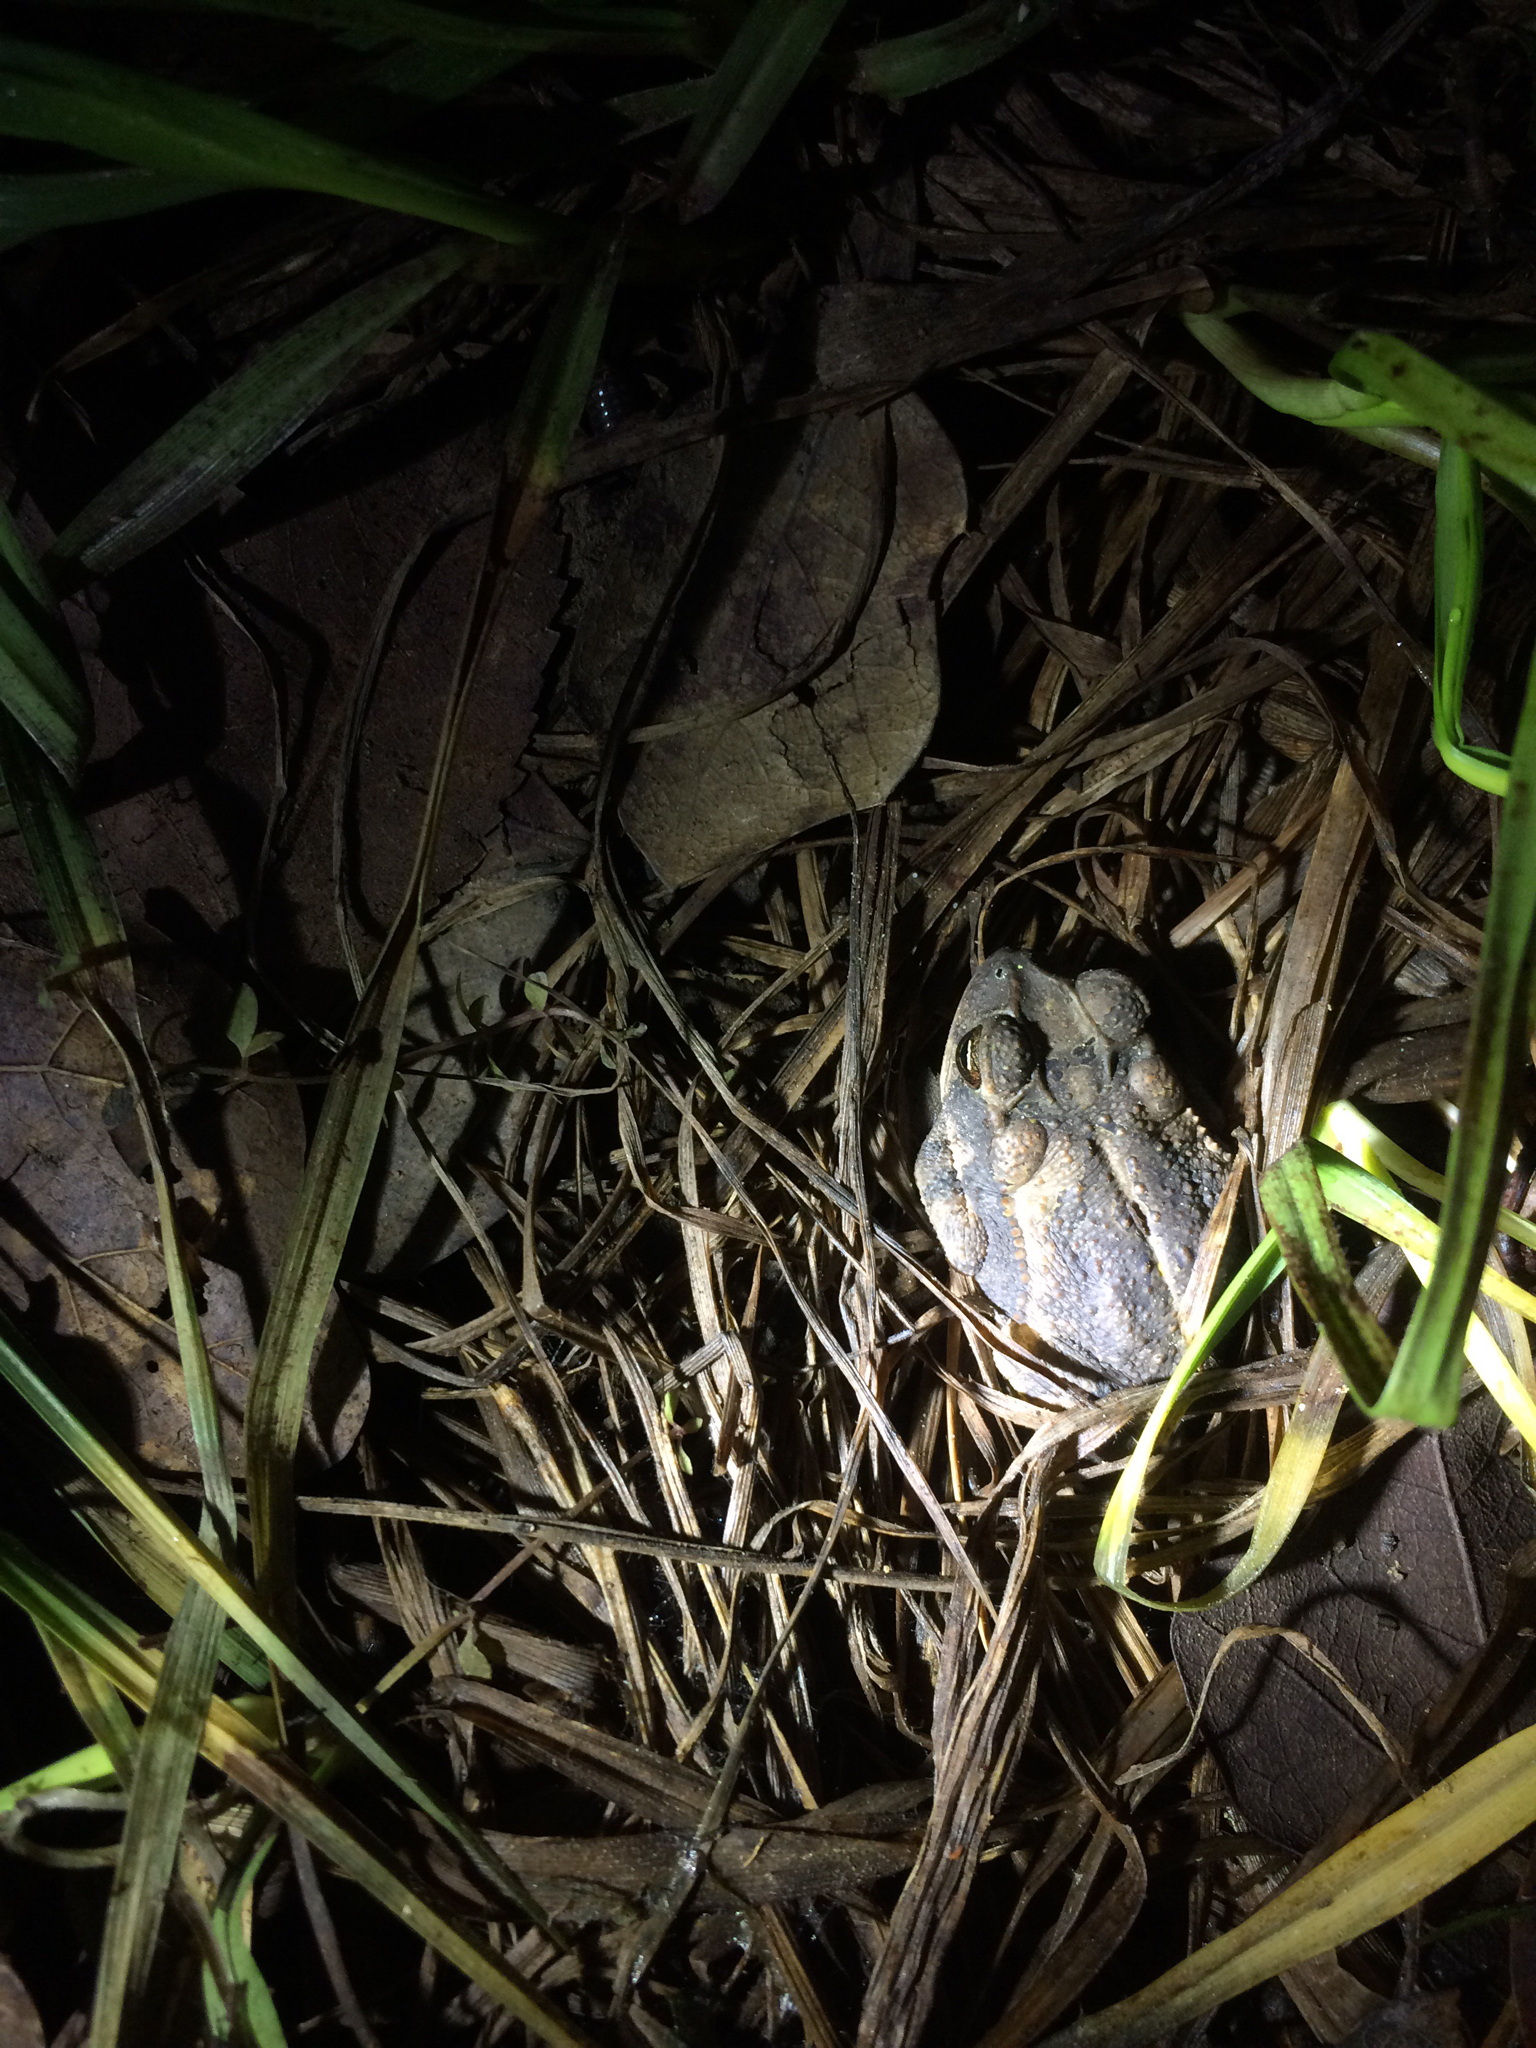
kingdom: Animalia
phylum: Chordata
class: Amphibia
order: Anura
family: Bufonidae
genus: Incilius
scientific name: Incilius nebulifer
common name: Gulf coast toad
